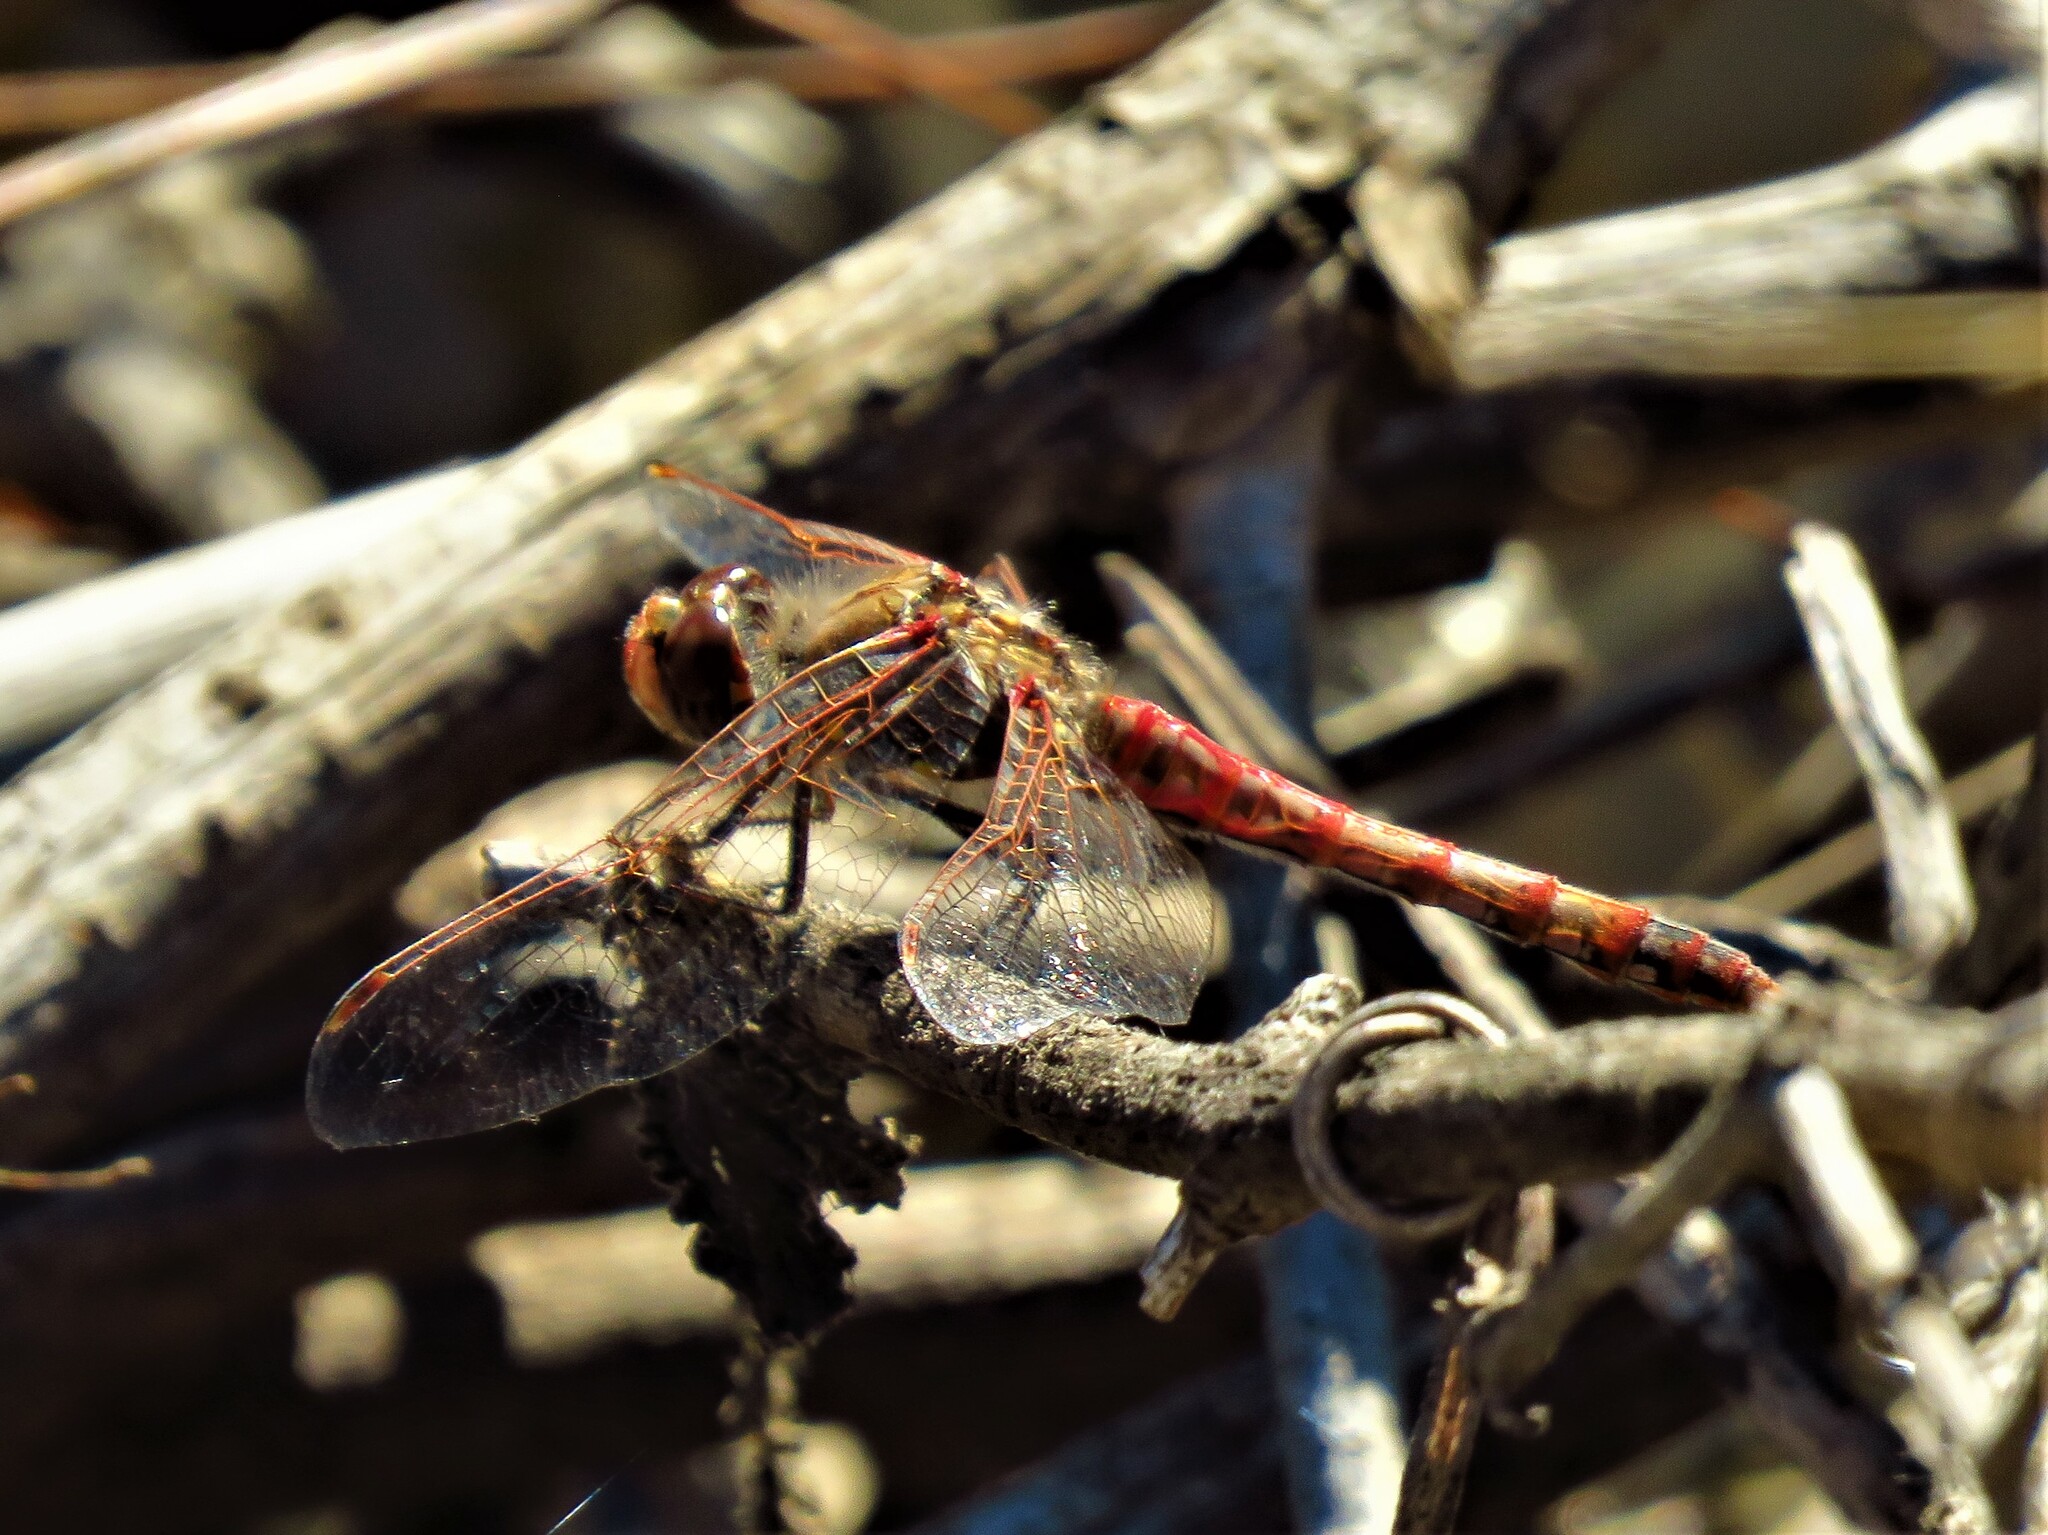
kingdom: Animalia
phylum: Arthropoda
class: Insecta
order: Odonata
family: Libellulidae
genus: Sympetrum
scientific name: Sympetrum corruptum
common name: Variegated meadowhawk
